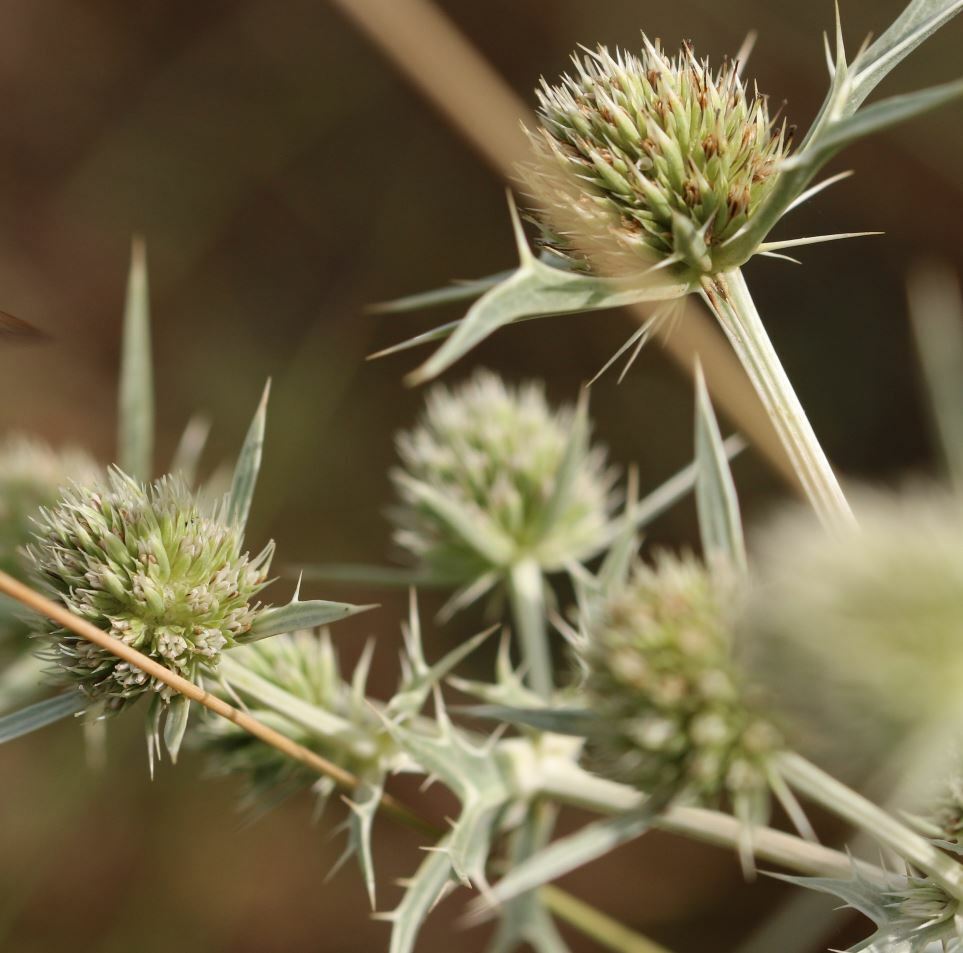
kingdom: Plantae
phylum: Tracheophyta
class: Magnoliopsida
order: Apiales
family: Apiaceae
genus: Eryngium
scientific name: Eryngium campestre
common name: Field eryngo
